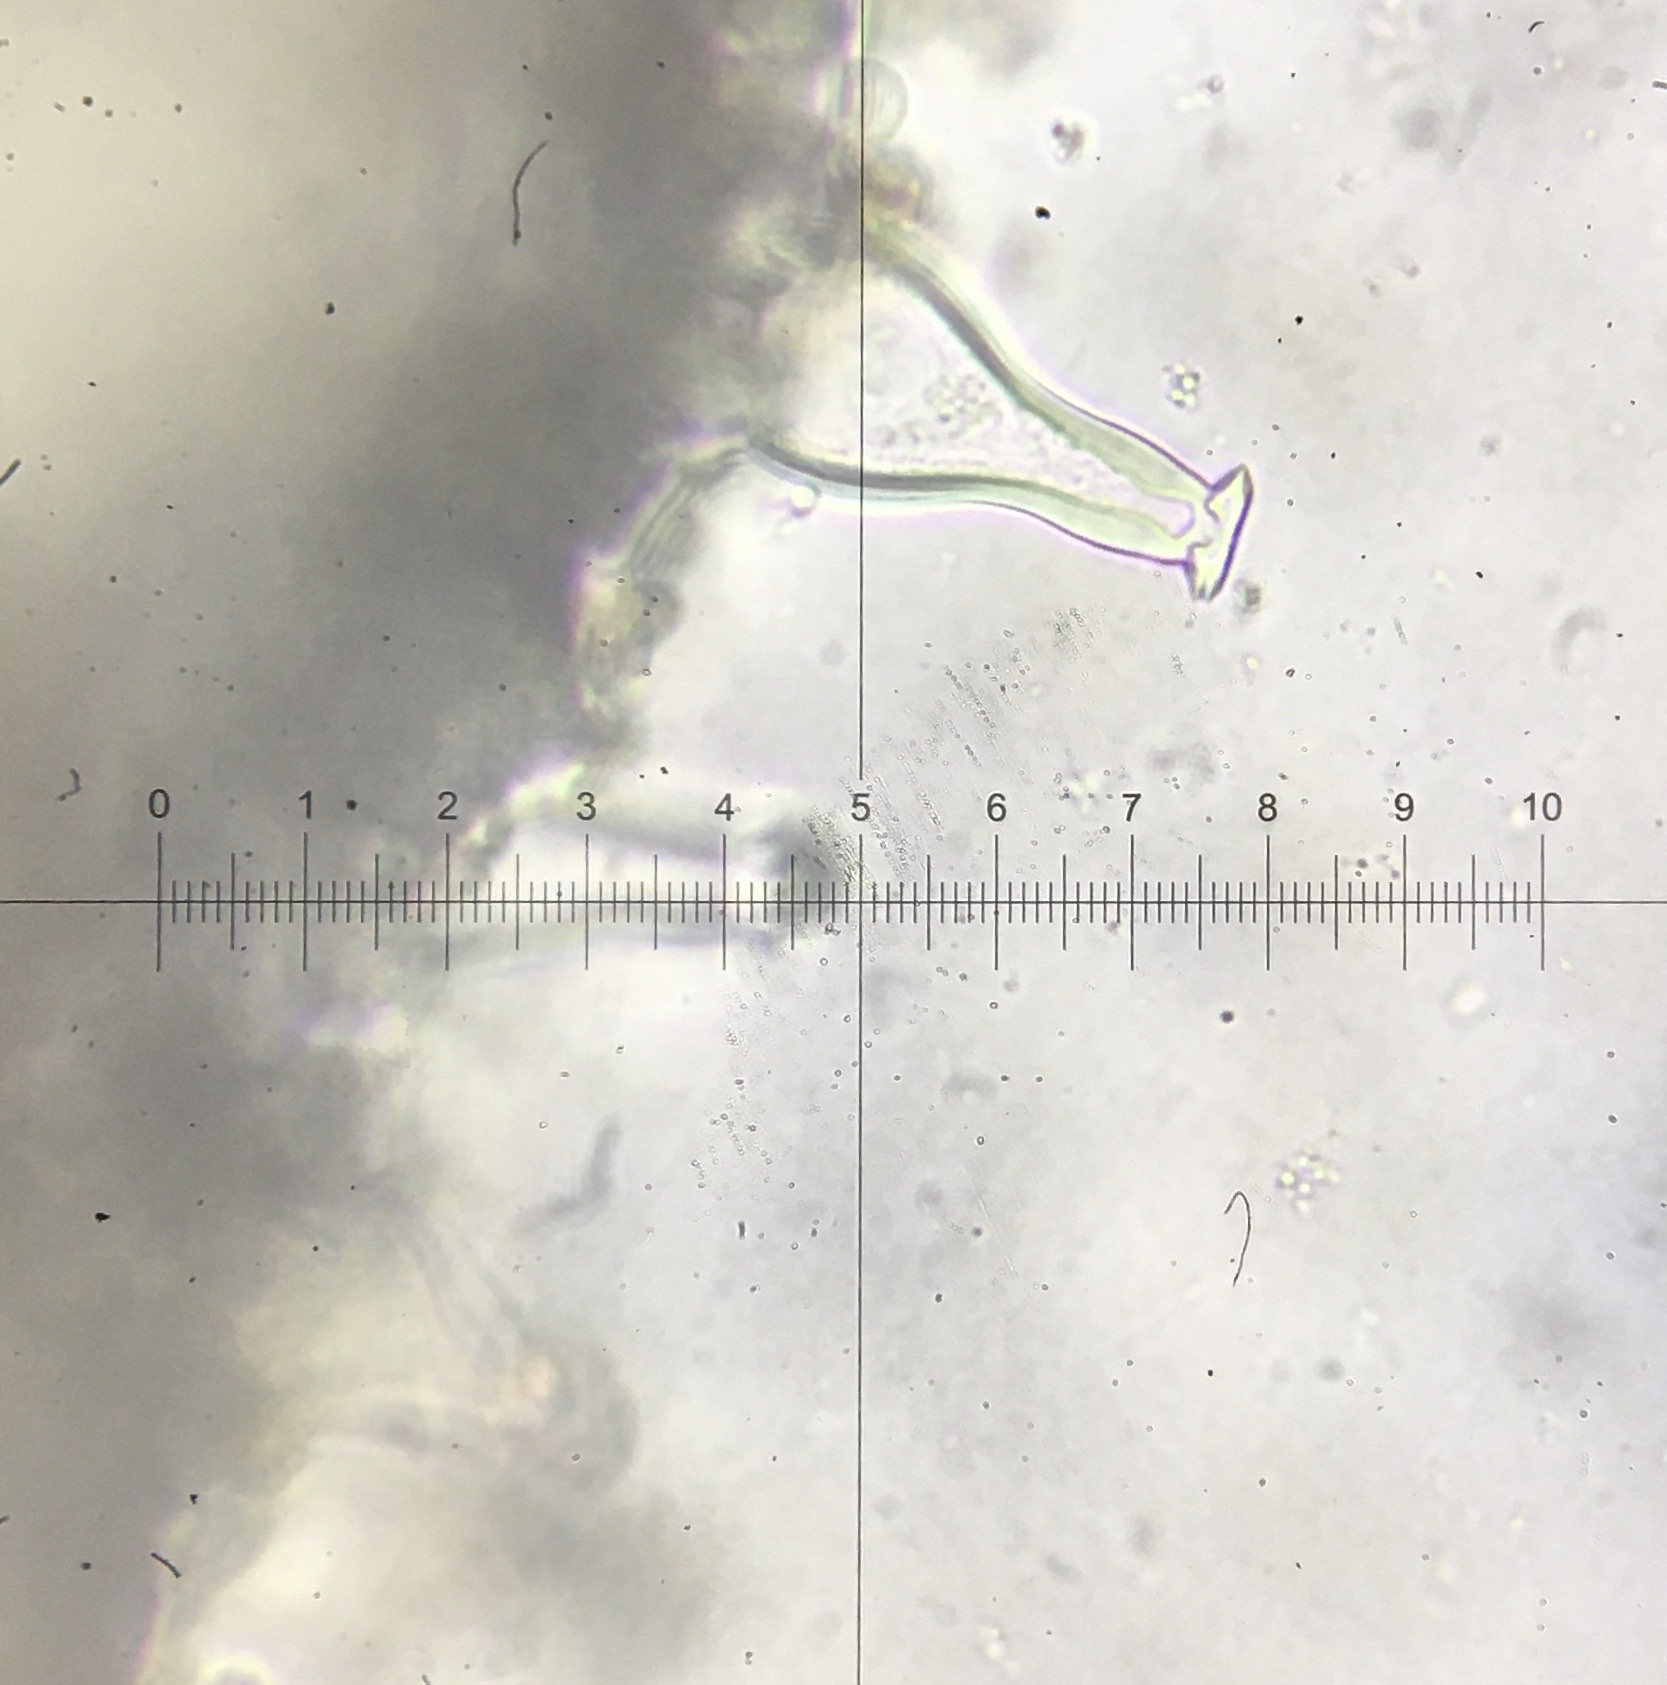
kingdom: Fungi
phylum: Basidiomycota
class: Agaricomycetes
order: Agaricales
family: Inocybaceae
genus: Inocybe
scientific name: Inocybe velicopia
